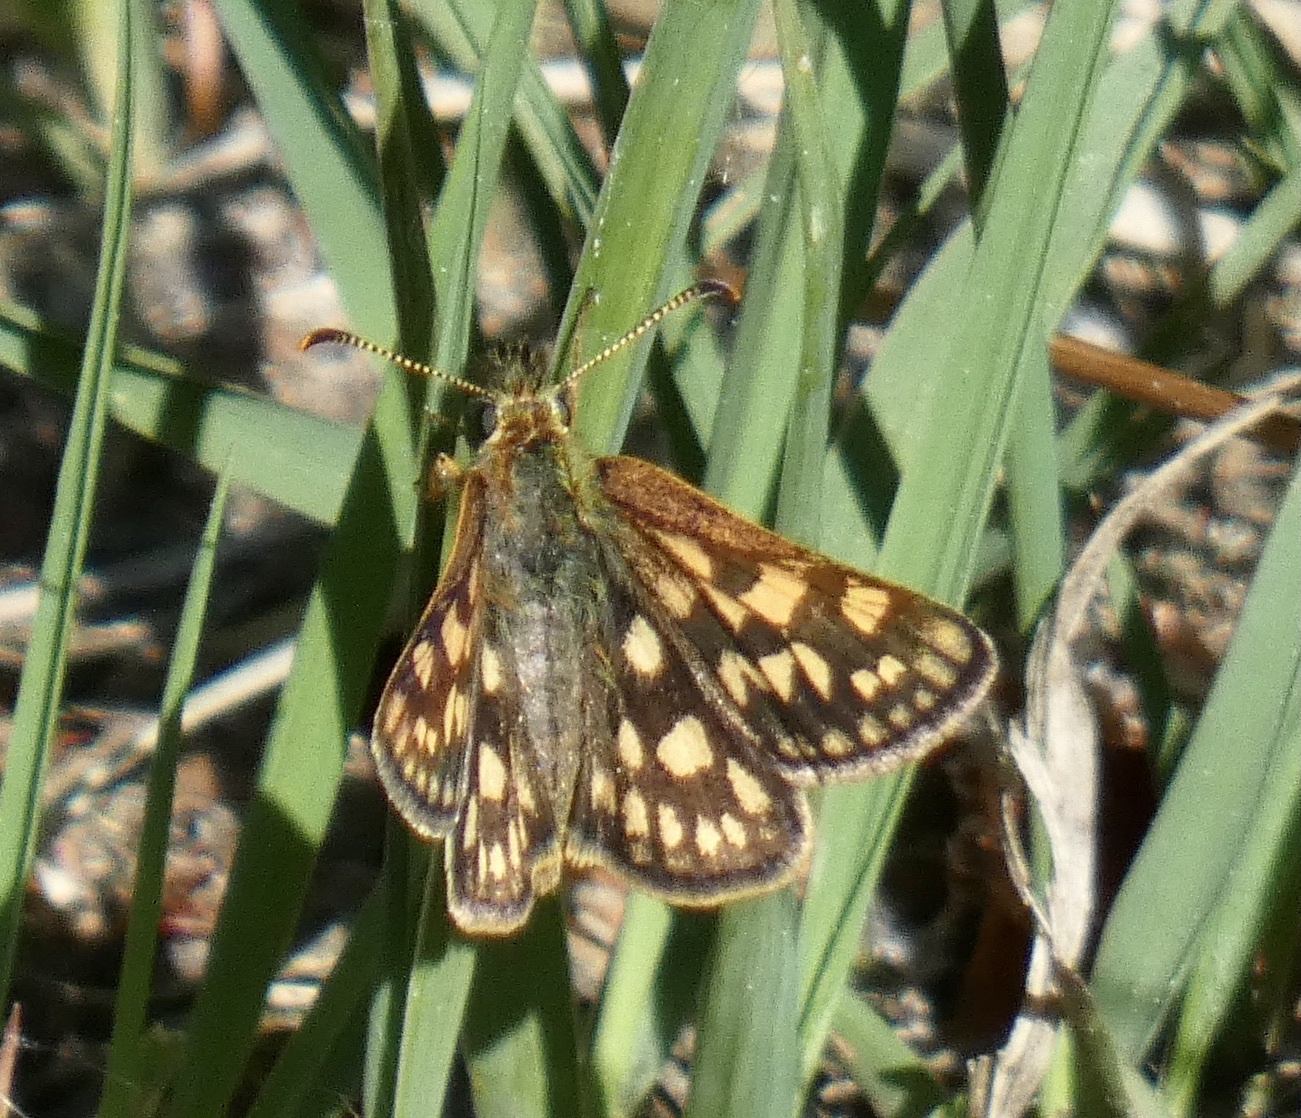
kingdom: Animalia
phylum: Arthropoda
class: Insecta
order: Lepidoptera
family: Hesperiidae
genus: Carterocephalus
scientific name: Carterocephalus palaemon
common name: Chequered skipper
